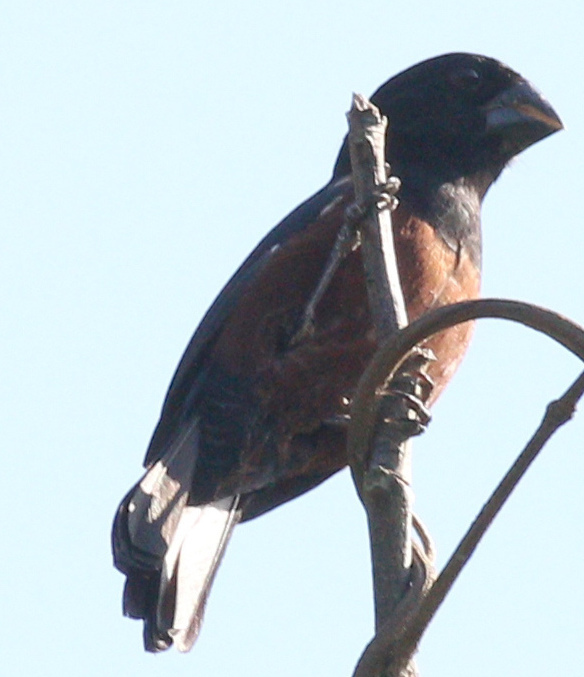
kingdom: Animalia
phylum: Chordata
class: Aves
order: Passeriformes
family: Thraupidae
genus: Sporophila
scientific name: Sporophila angolensis
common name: Chestnut-bellied seed-finch
